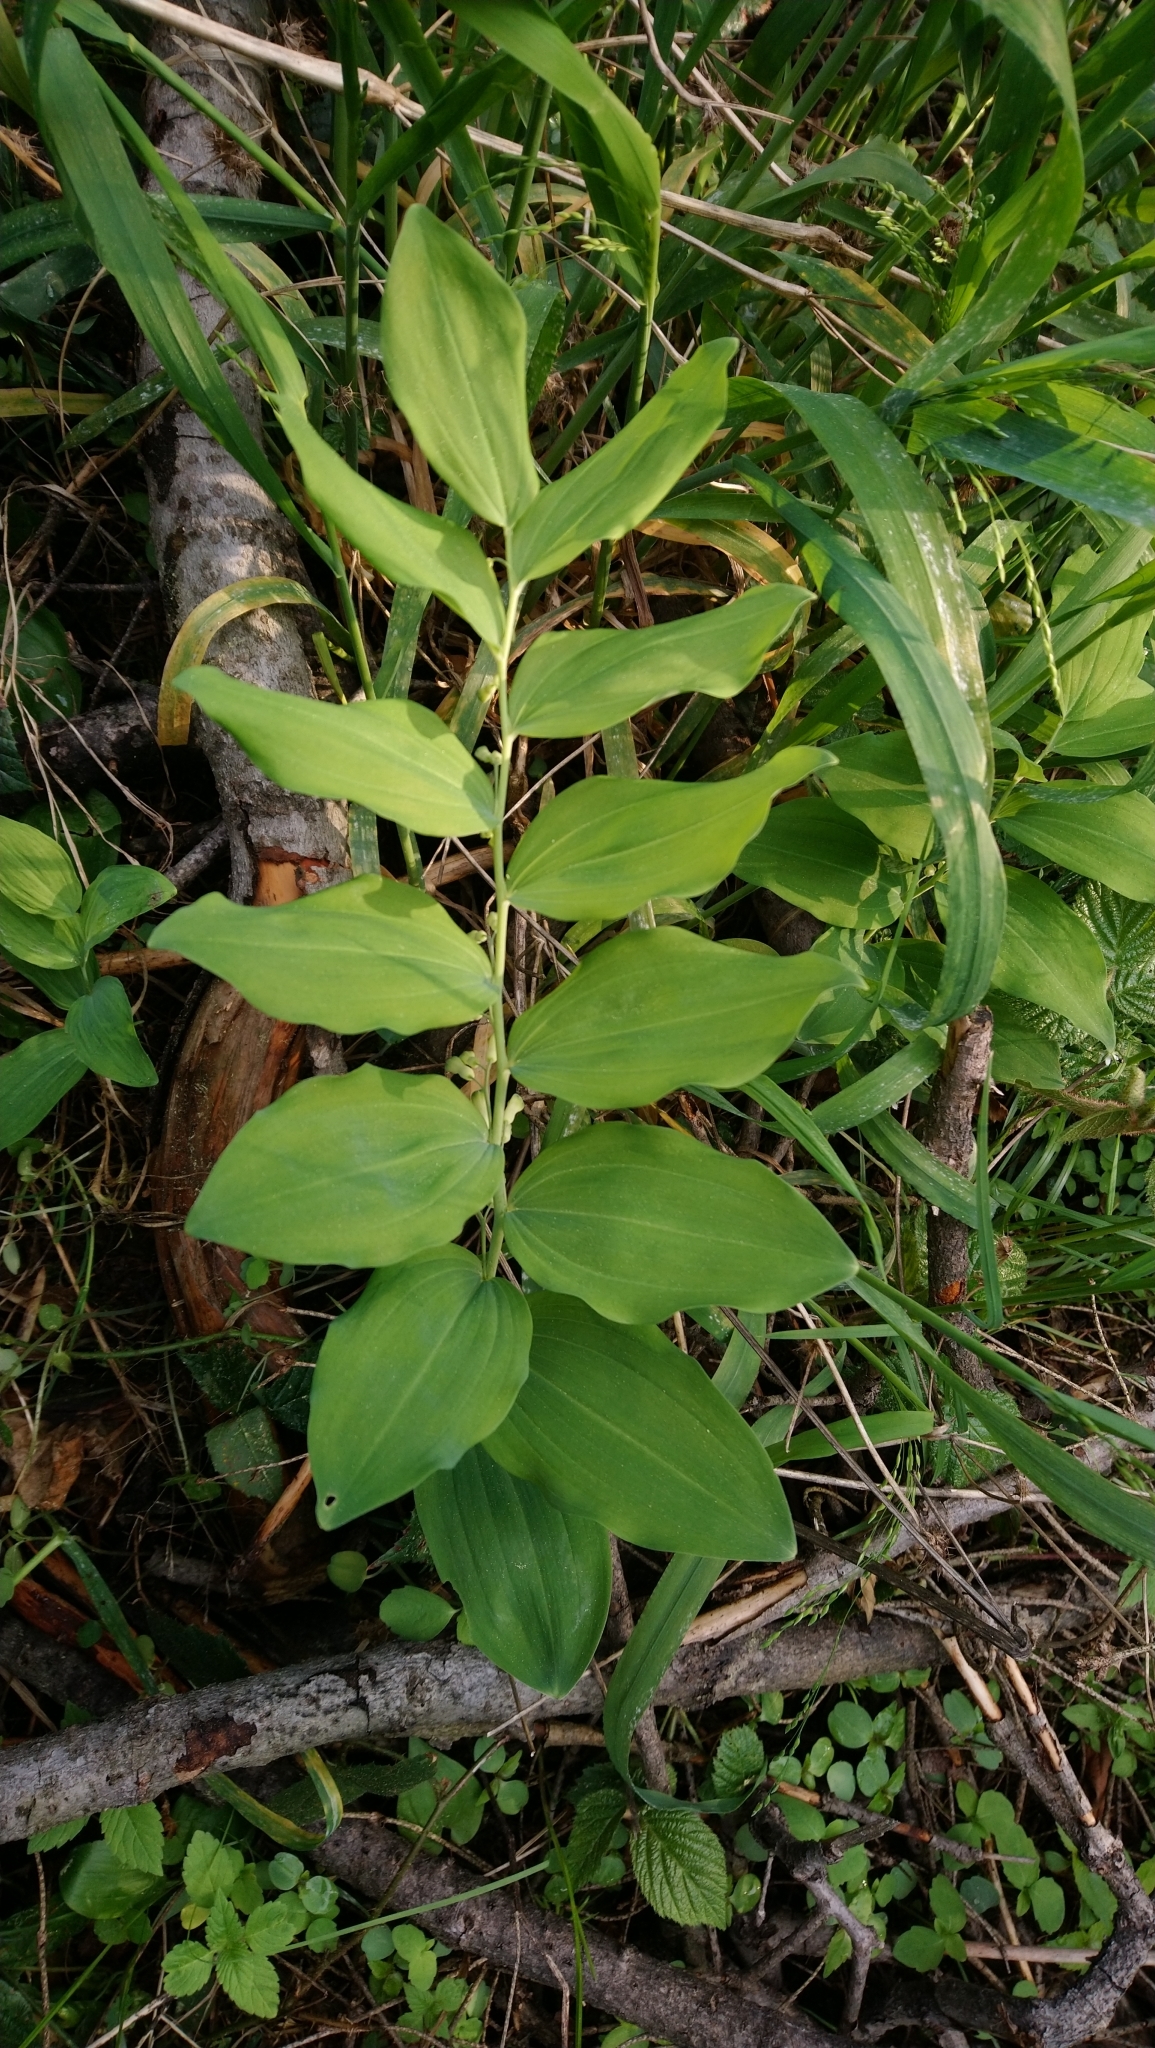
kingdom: Plantae
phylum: Tracheophyta
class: Liliopsida
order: Asparagales
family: Asparagaceae
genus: Polygonatum
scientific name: Polygonatum multiflorum
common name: Solomon's-seal
